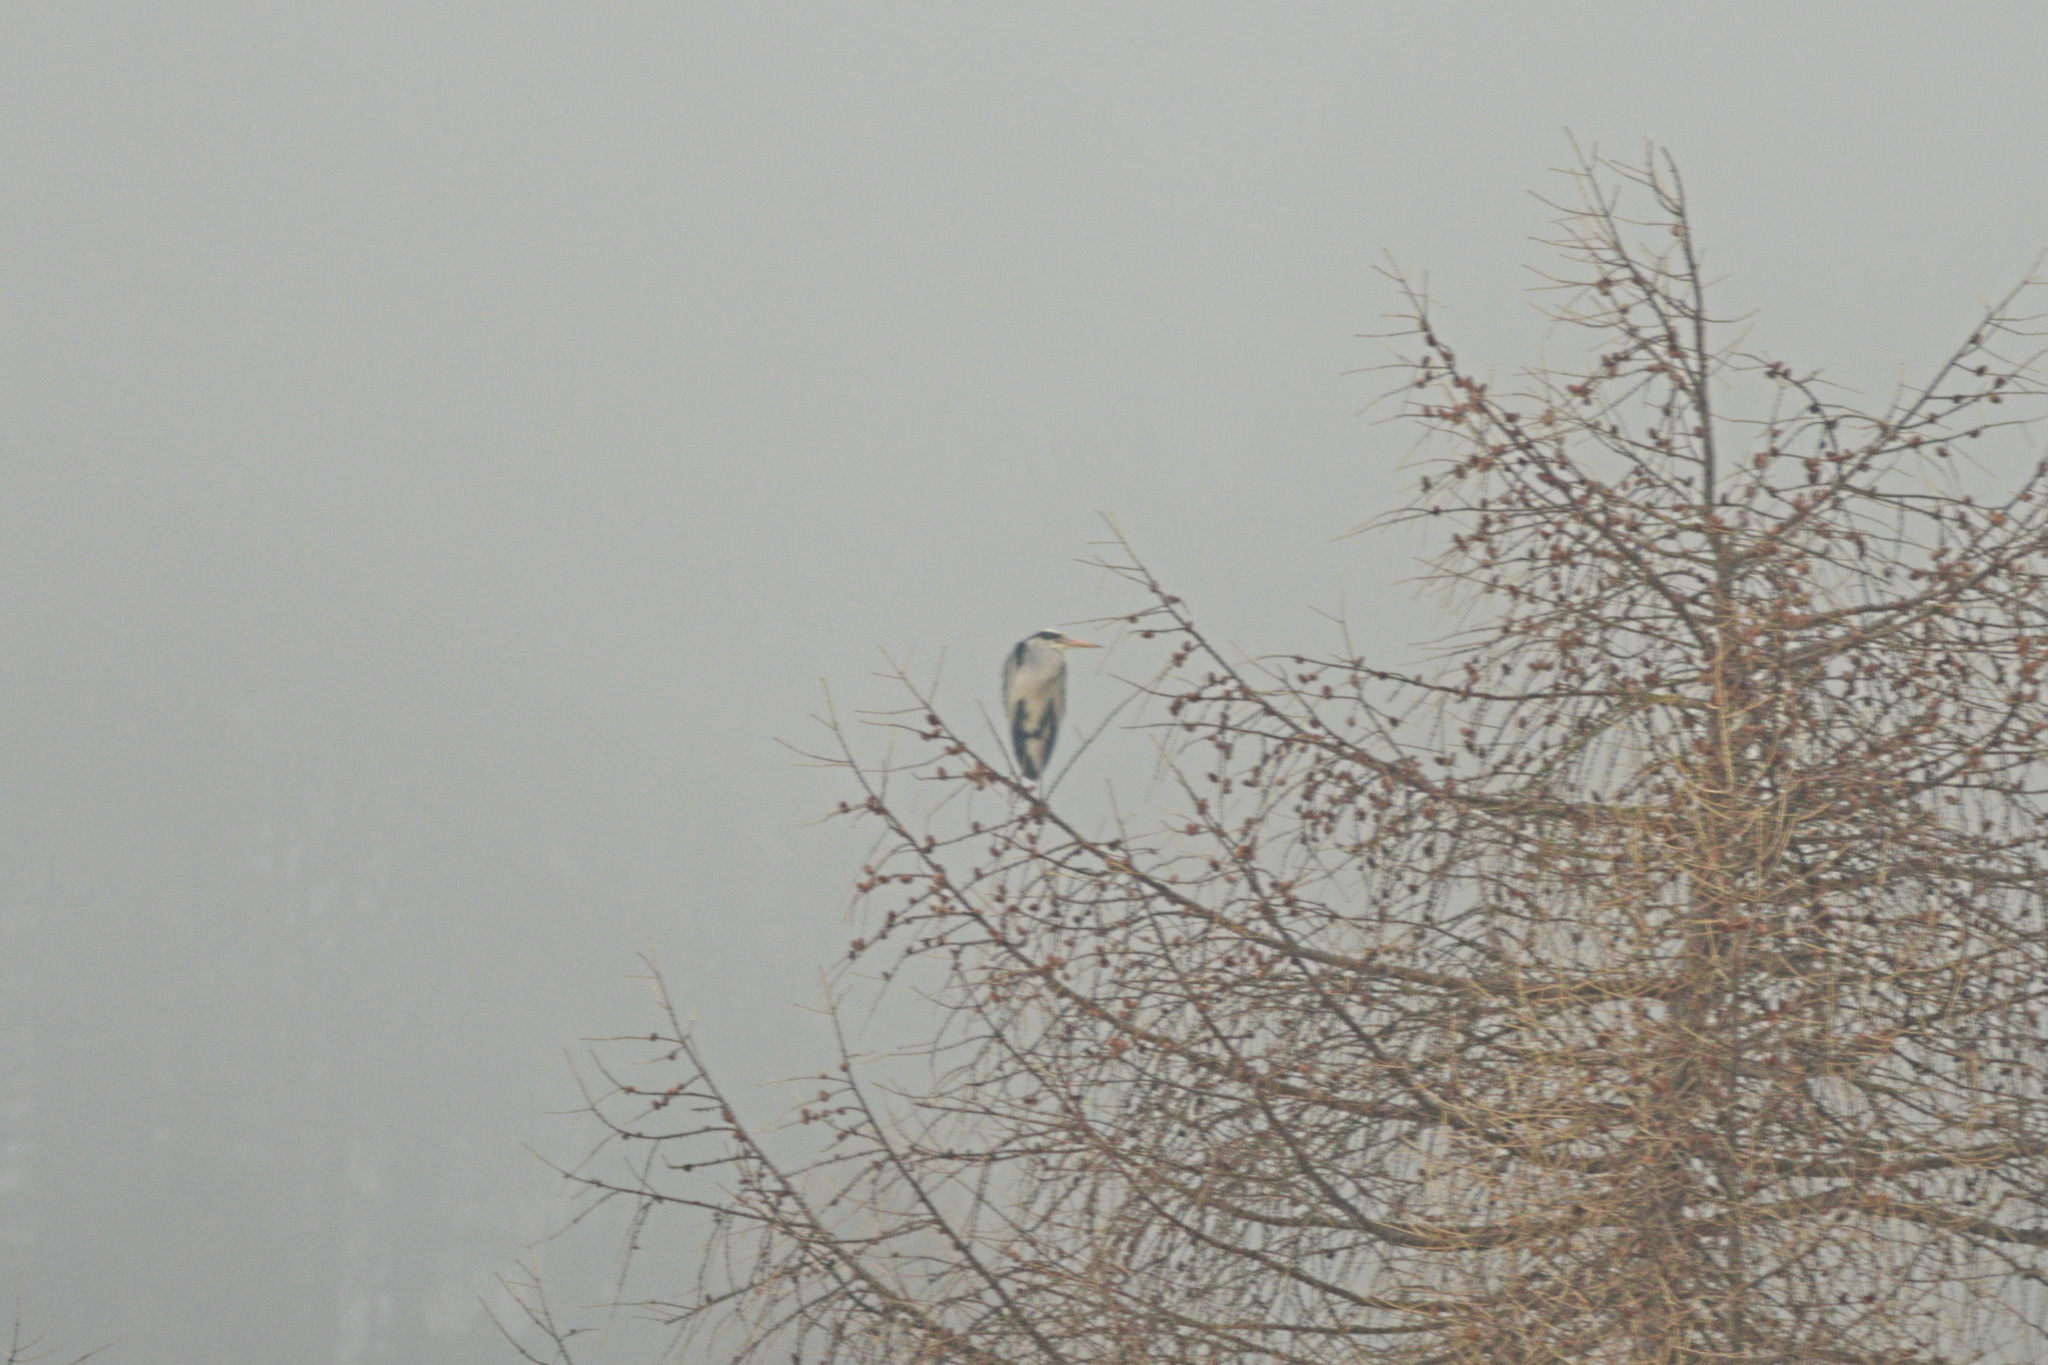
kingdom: Animalia
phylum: Chordata
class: Aves
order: Pelecaniformes
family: Ardeidae
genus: Ardea
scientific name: Ardea cinerea
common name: Grey heron
